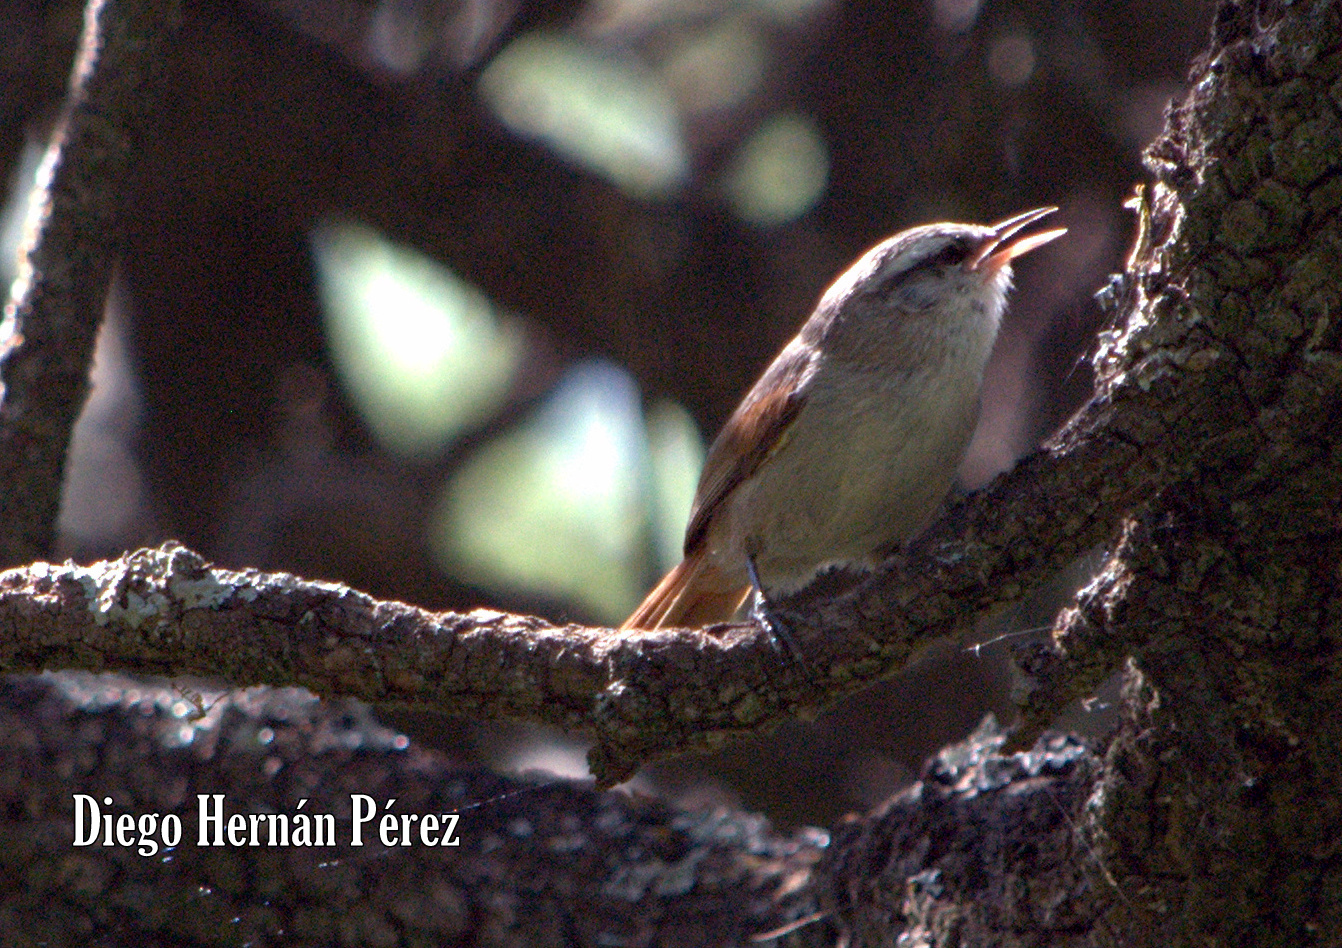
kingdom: Animalia
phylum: Chordata
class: Aves
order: Passeriformes
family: Furnariidae
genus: Cranioleuca
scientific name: Cranioleuca pyrrhophia
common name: Stripe-crowned spinetail
